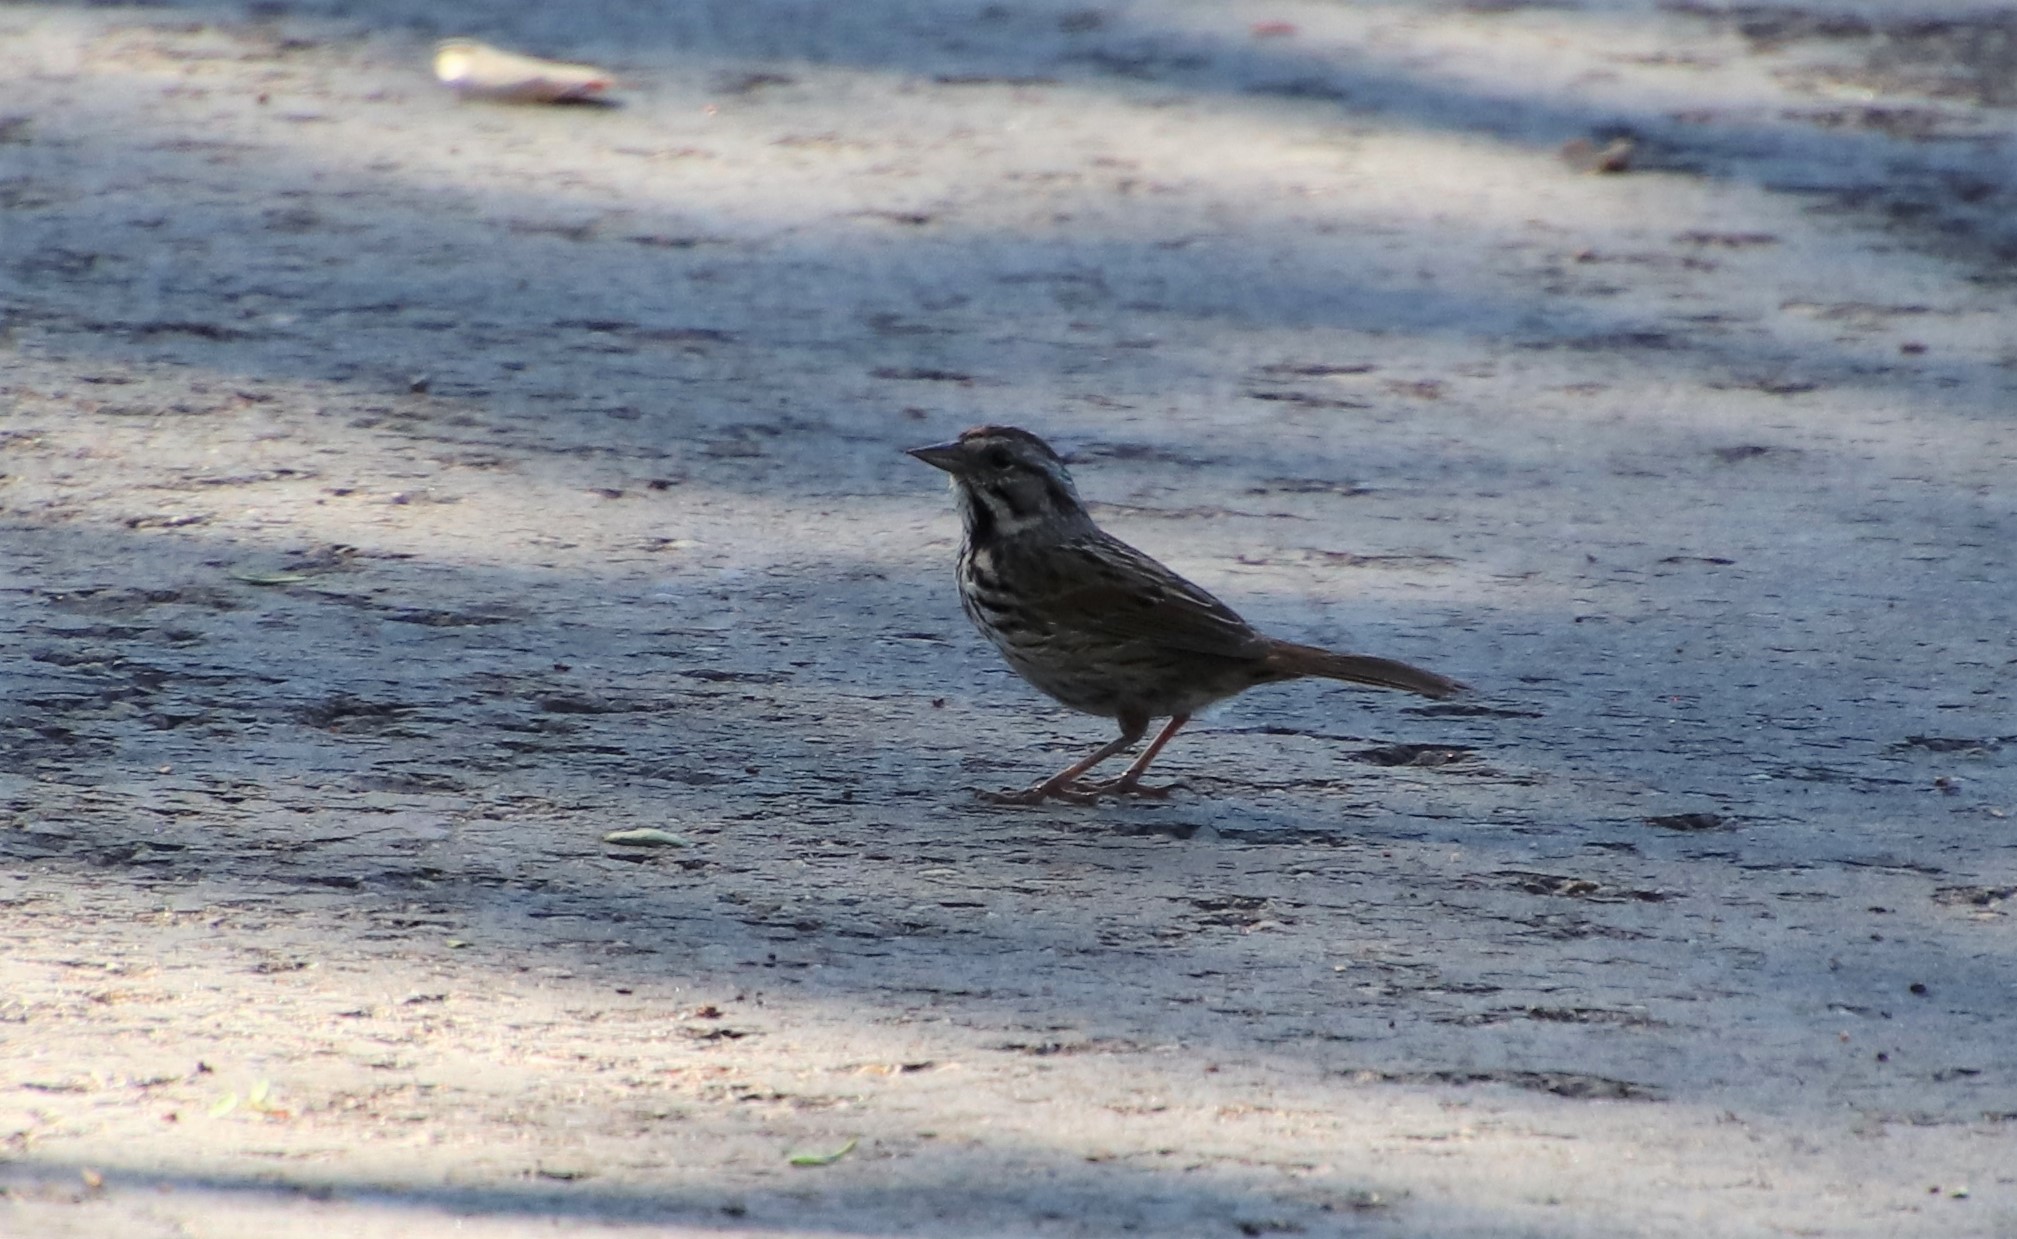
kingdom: Animalia
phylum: Chordata
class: Aves
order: Passeriformes
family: Passerellidae
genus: Melospiza
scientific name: Melospiza melodia
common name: Song sparrow
